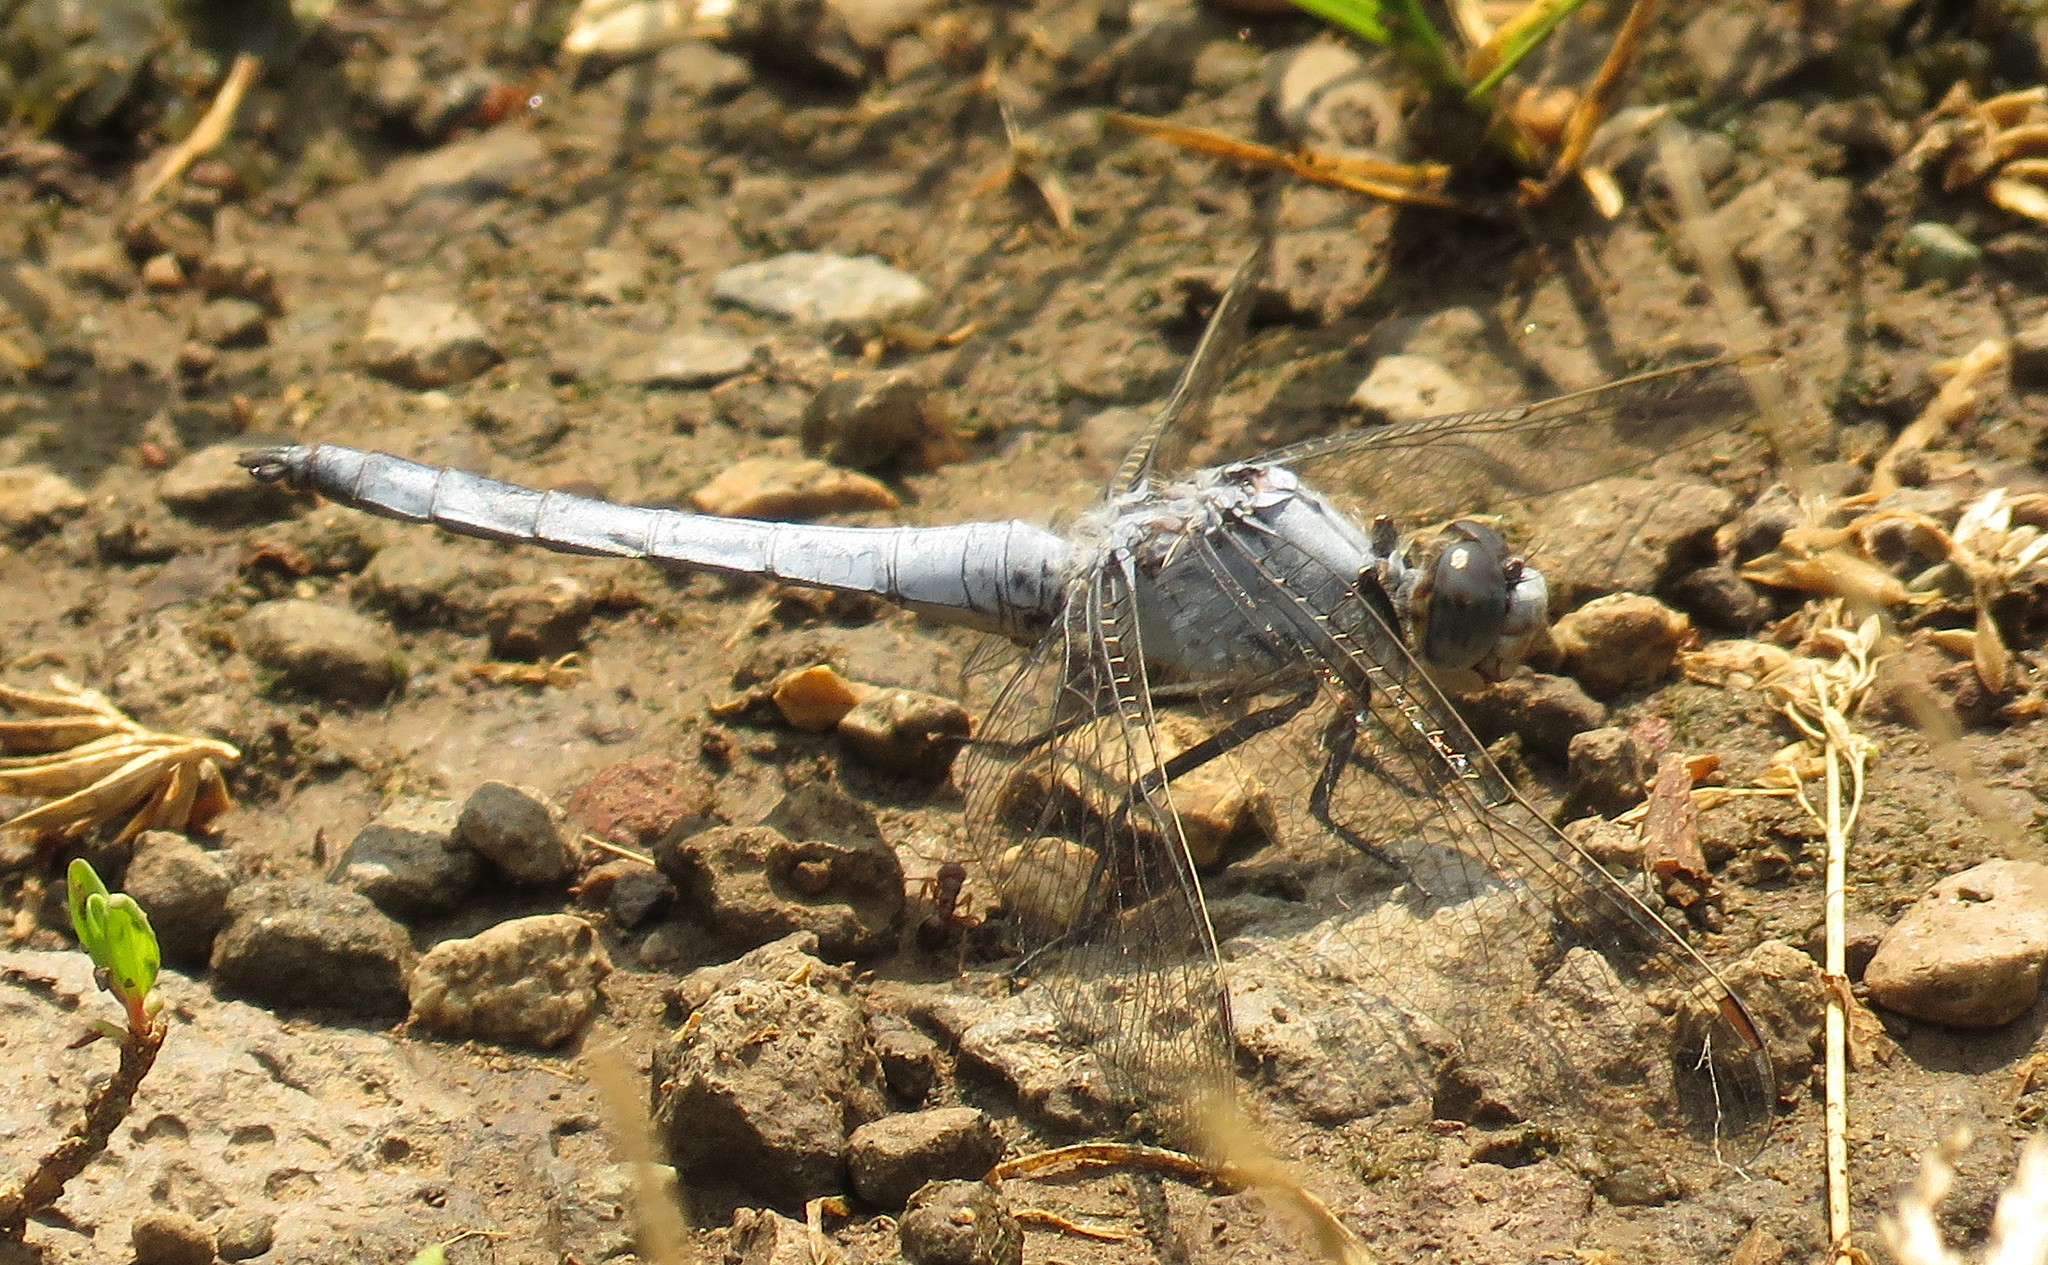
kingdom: Animalia
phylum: Arthropoda
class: Insecta
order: Odonata
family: Libellulidae
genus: Orthetrum
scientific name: Orthetrum brunneum
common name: Southern skimmer
